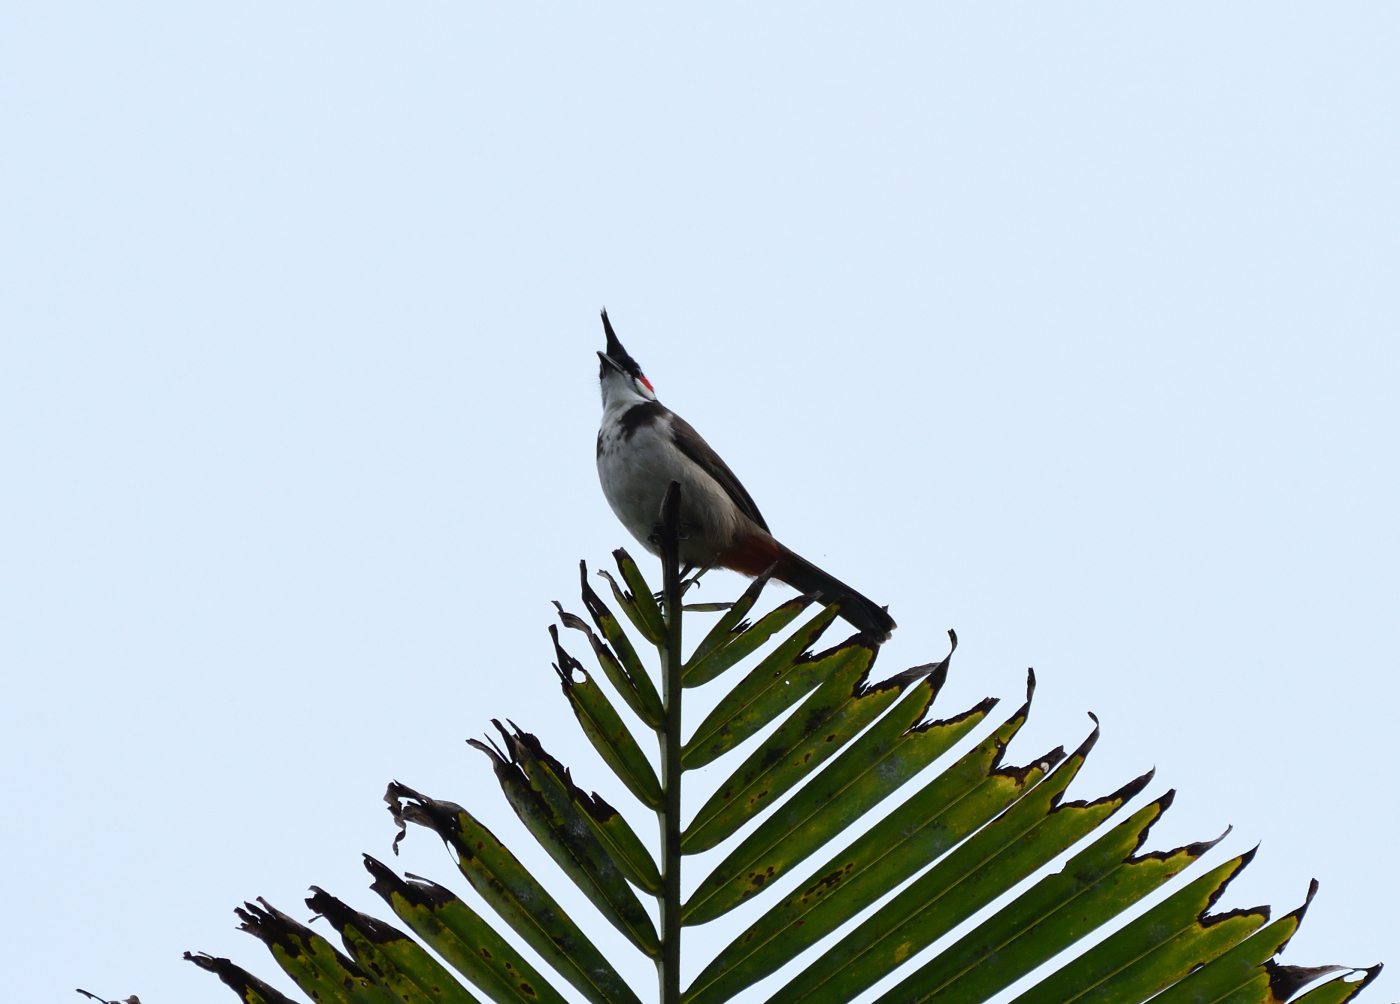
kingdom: Animalia
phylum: Chordata
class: Aves
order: Passeriformes
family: Pycnonotidae
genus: Pycnonotus
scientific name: Pycnonotus jocosus
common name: Red-whiskered bulbul
